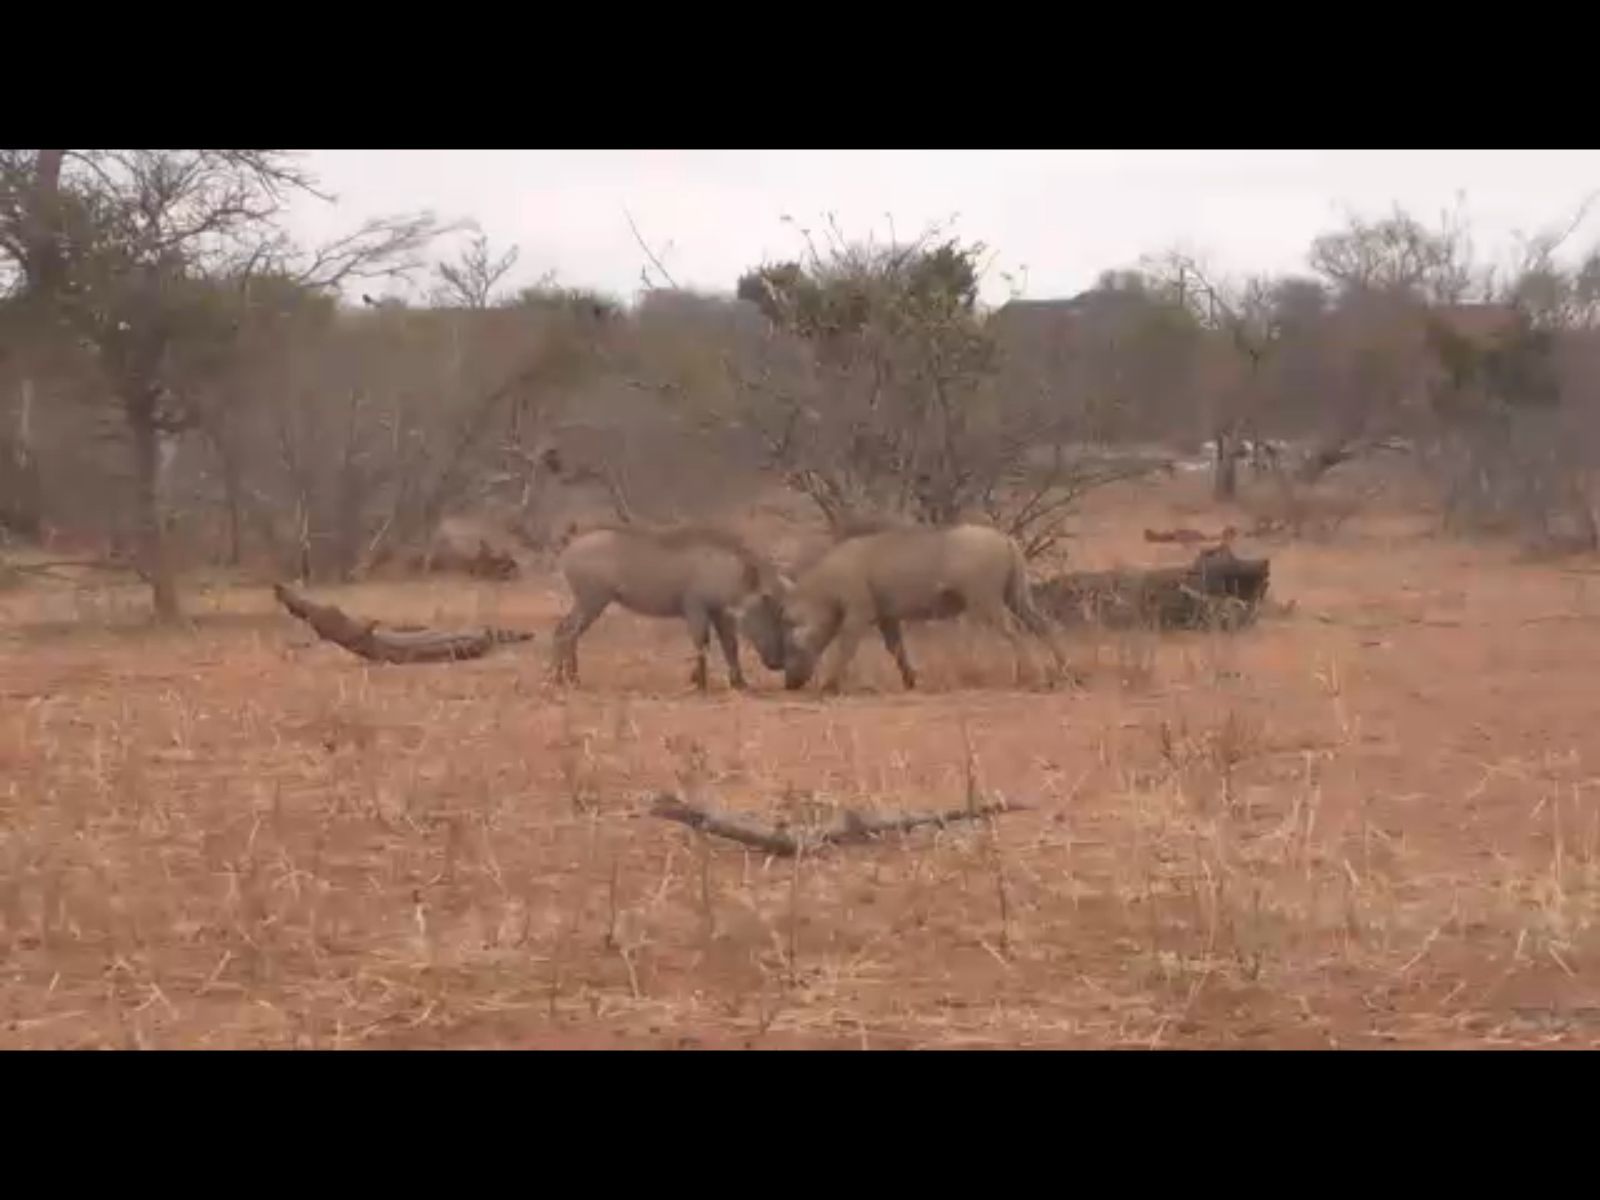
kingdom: Animalia
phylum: Chordata
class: Mammalia
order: Artiodactyla
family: Suidae
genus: Phacochoerus
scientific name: Phacochoerus africanus
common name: Common warthog
